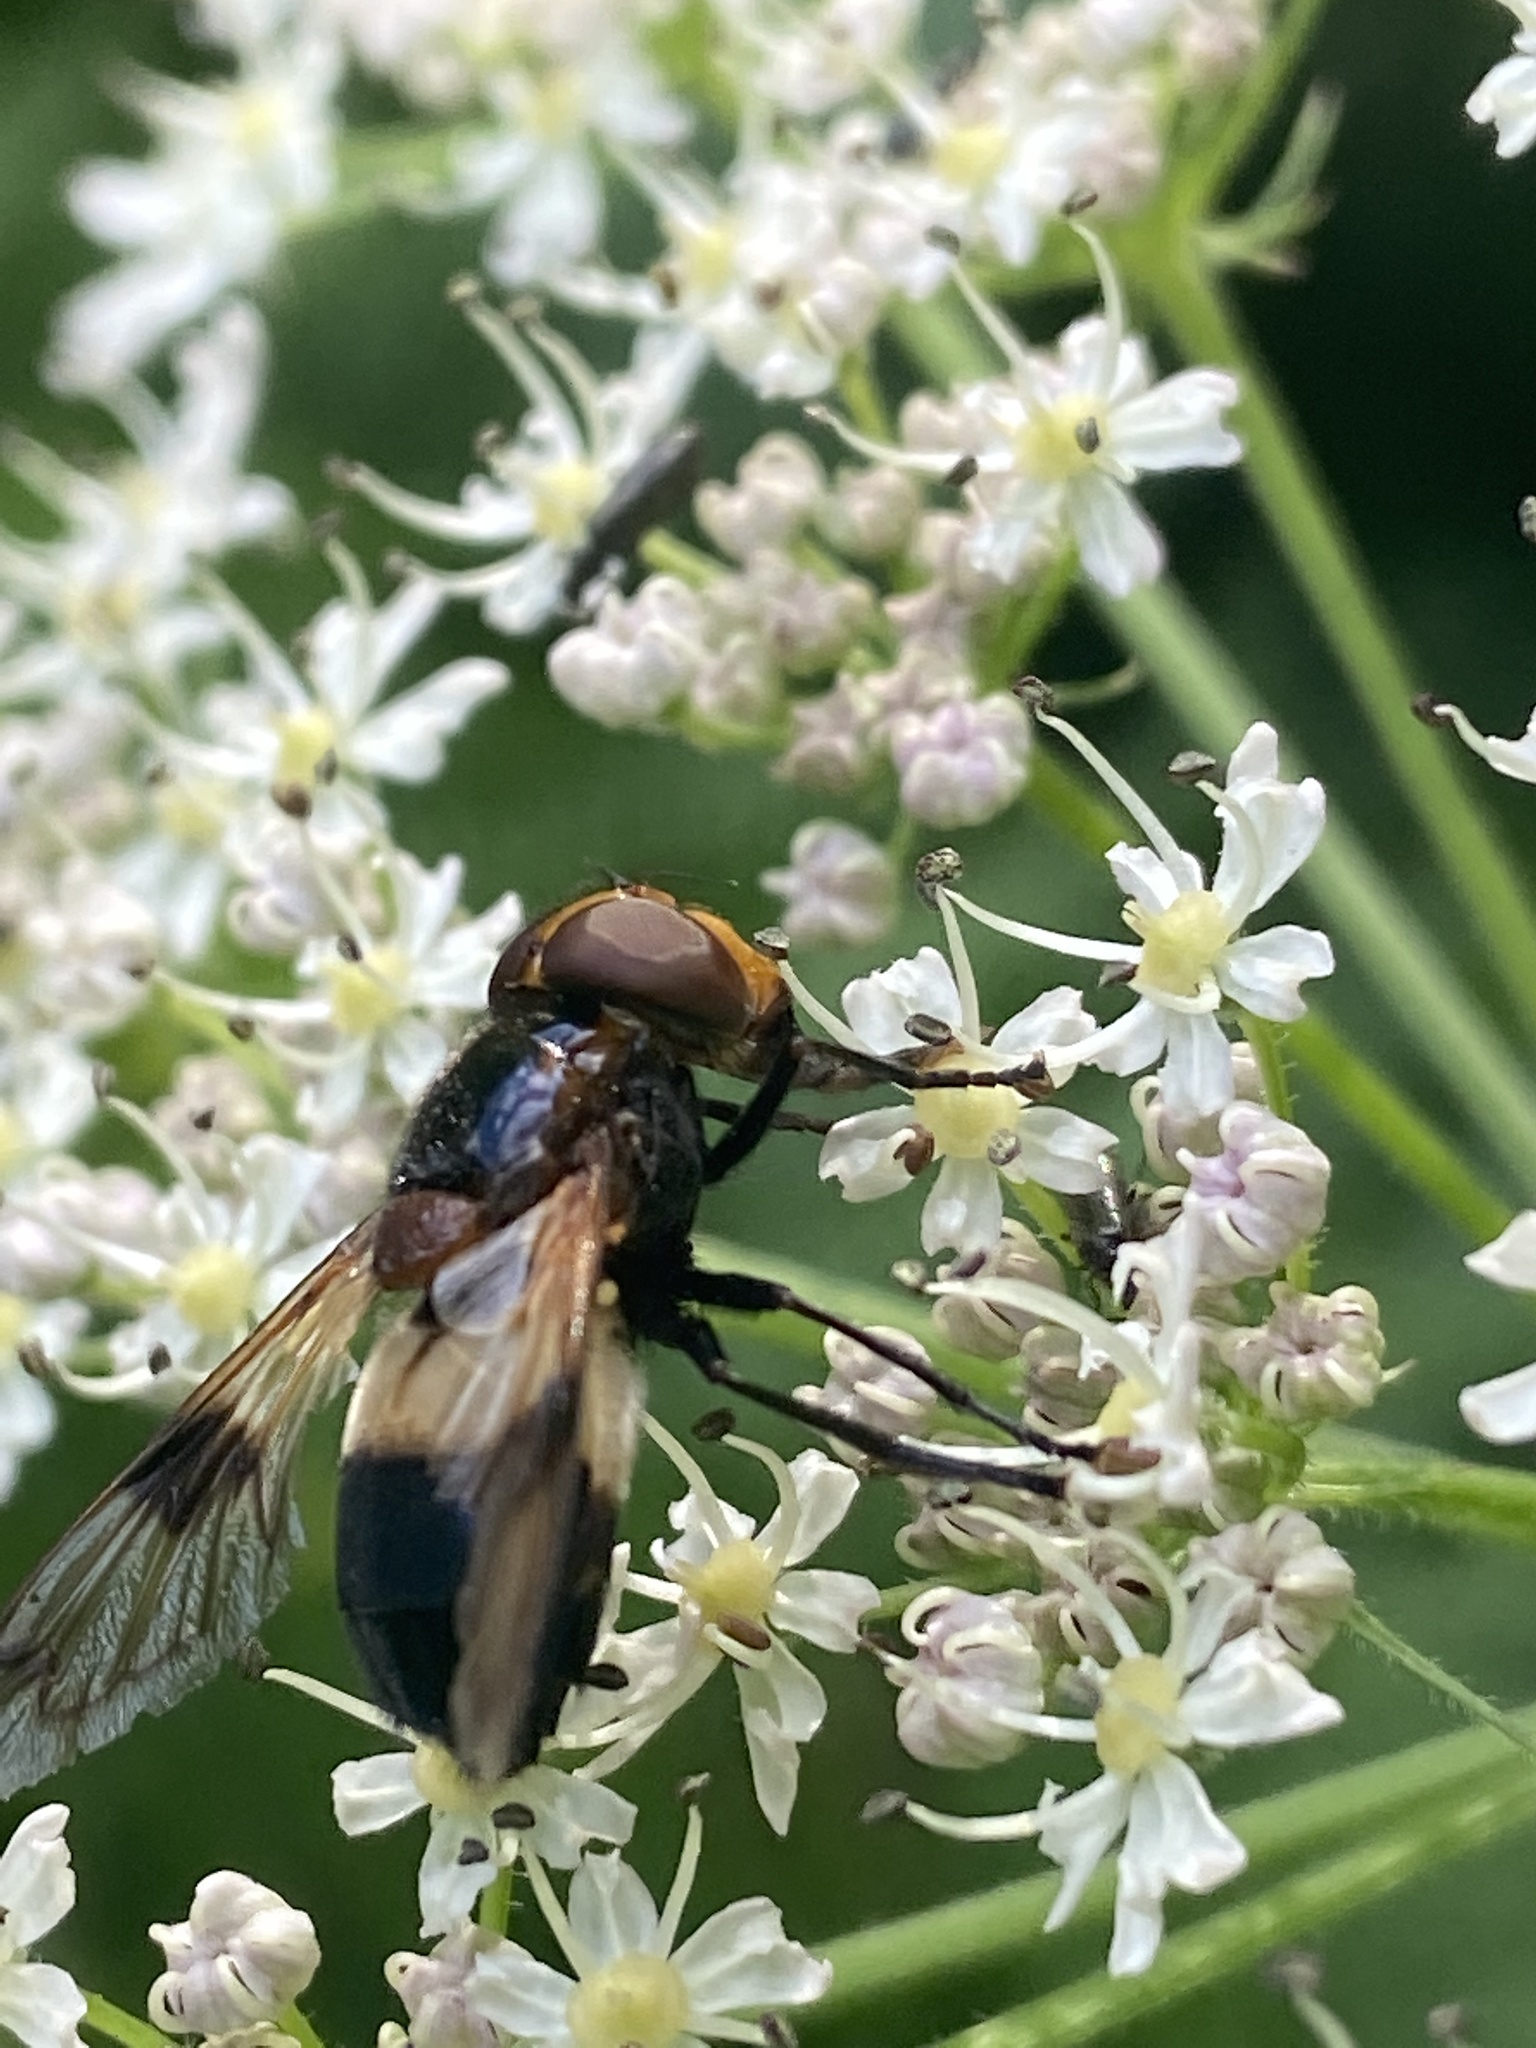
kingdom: Animalia
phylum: Arthropoda
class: Insecta
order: Diptera
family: Syrphidae
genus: Volucella
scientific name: Volucella pellucens
